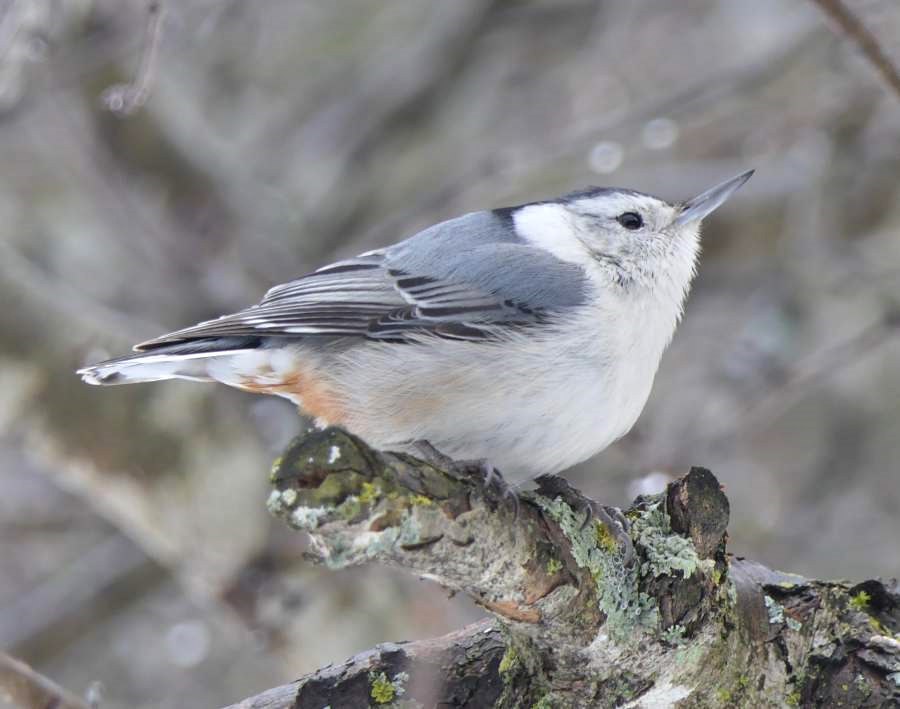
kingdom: Animalia
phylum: Chordata
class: Aves
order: Passeriformes
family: Sittidae
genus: Sitta
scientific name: Sitta carolinensis
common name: White-breasted nuthatch
